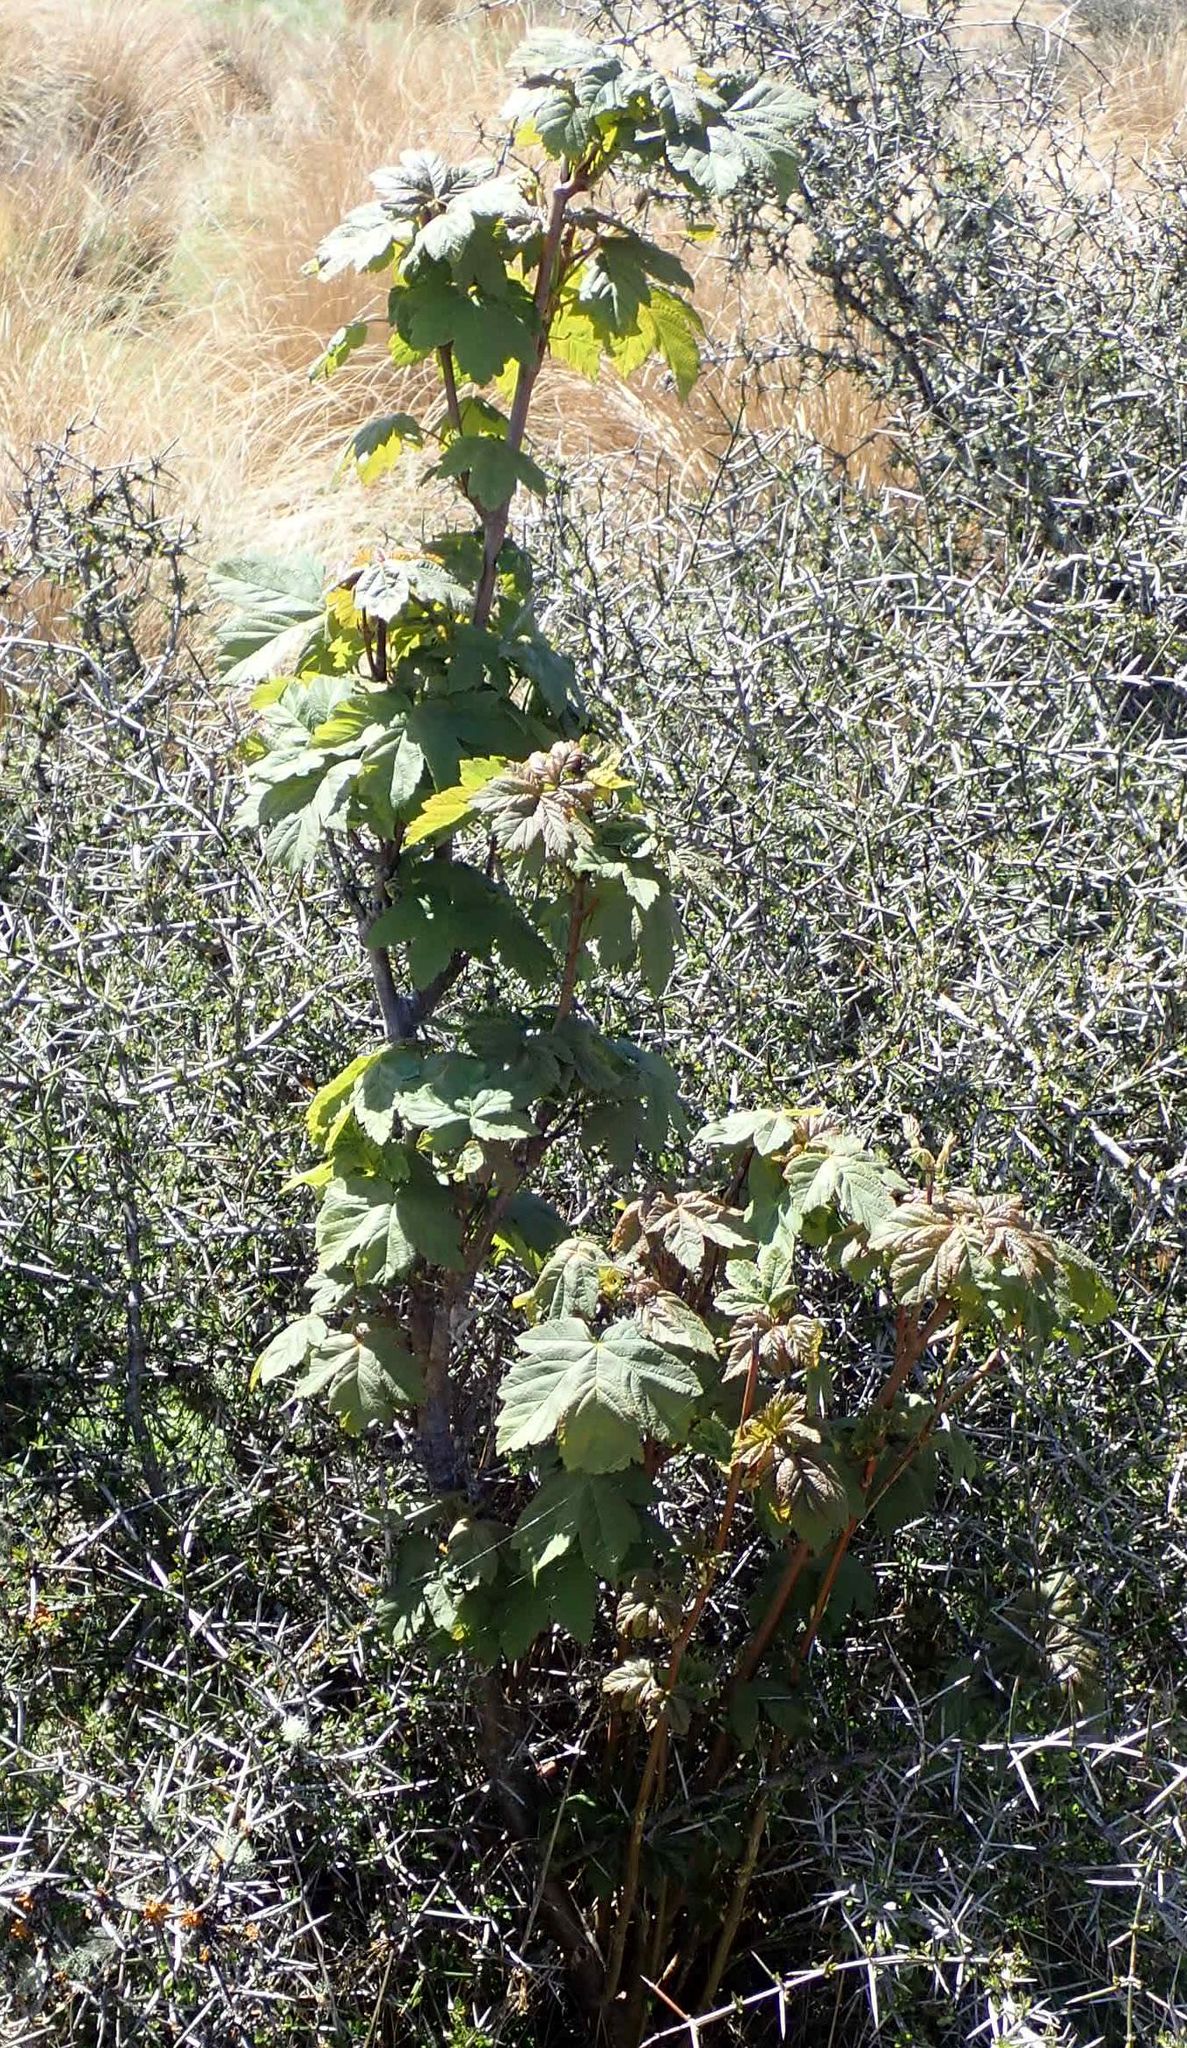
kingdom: Plantae
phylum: Tracheophyta
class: Magnoliopsida
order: Sapindales
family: Sapindaceae
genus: Acer
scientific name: Acer pseudoplatanus
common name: Sycamore
